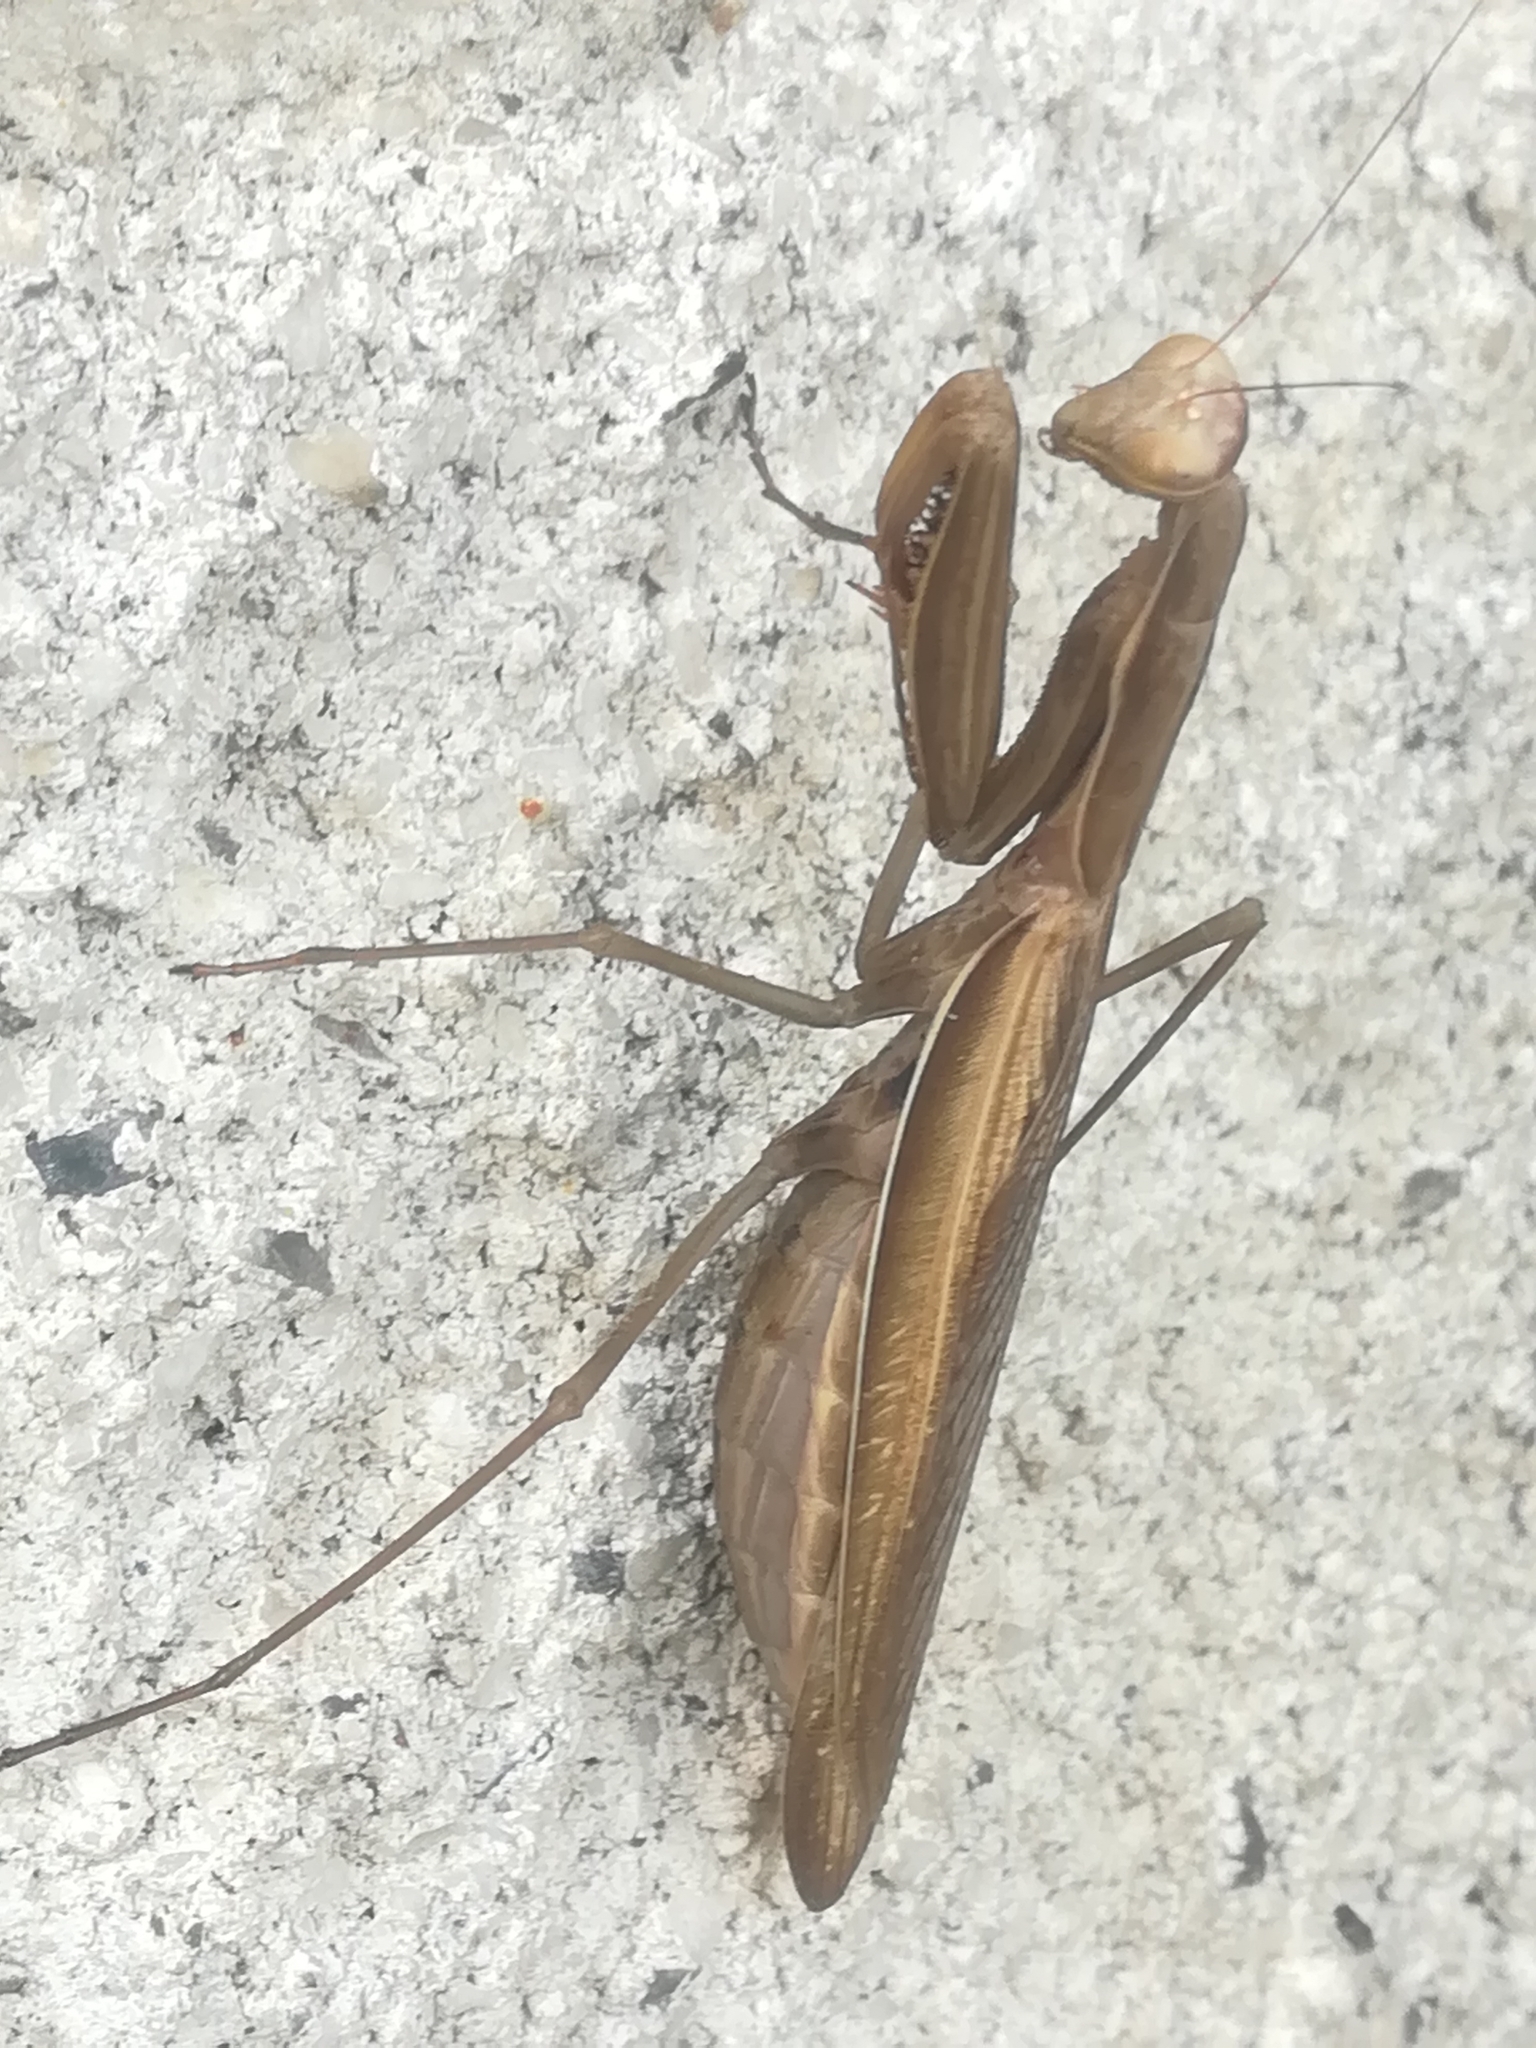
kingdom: Animalia
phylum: Arthropoda
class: Insecta
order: Mantodea
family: Mantidae
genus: Mantis
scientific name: Mantis religiosa
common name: Praying mantis
